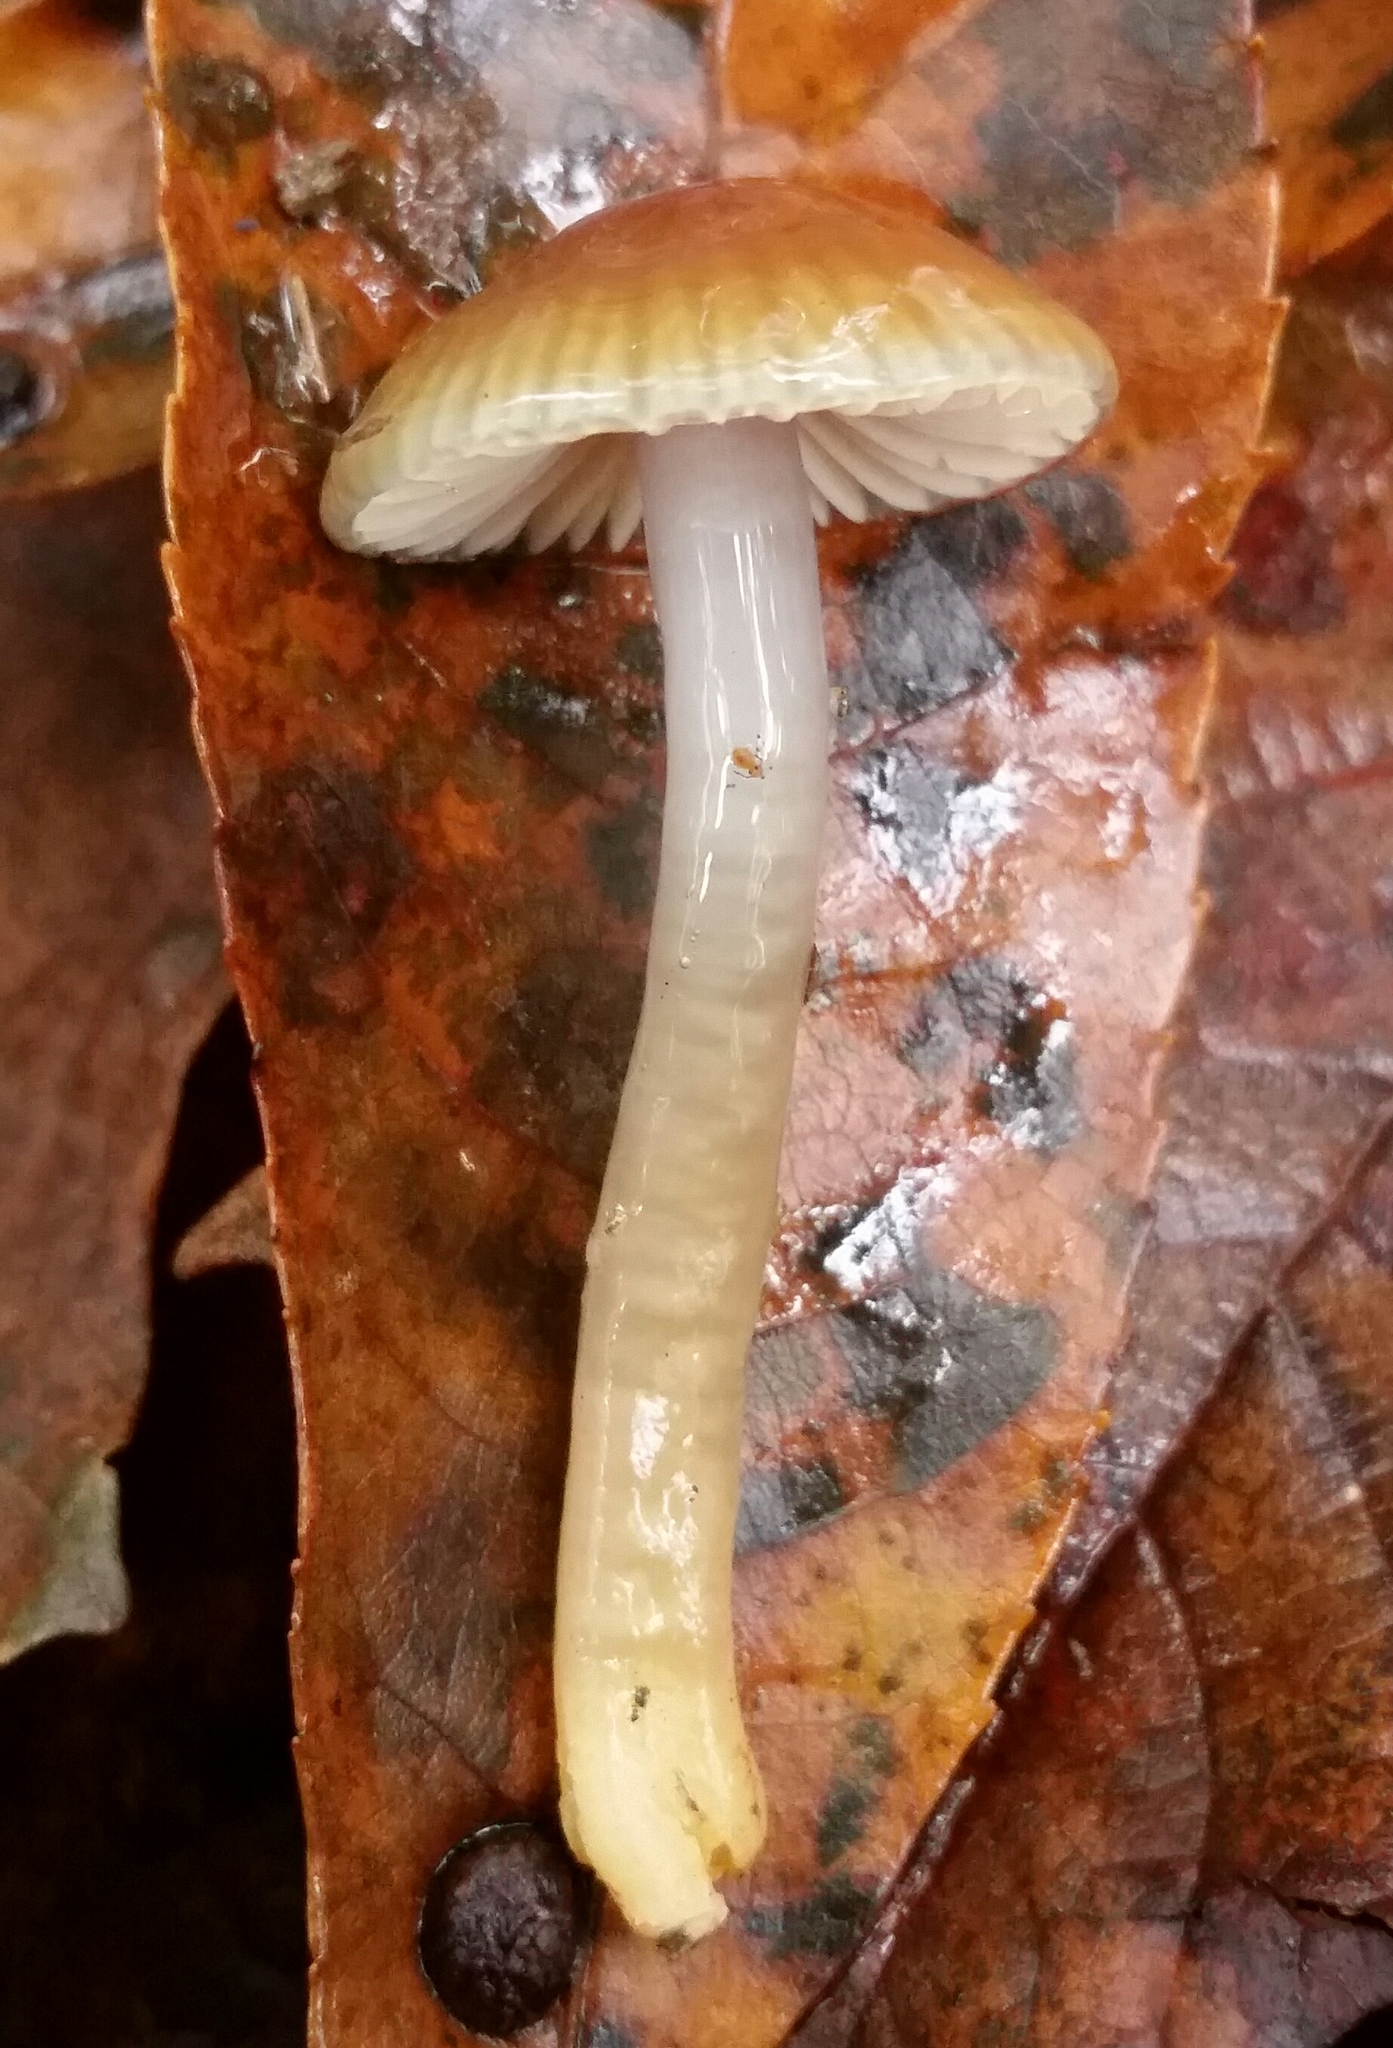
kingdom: Fungi
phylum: Basidiomycota
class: Agaricomycetes
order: Agaricales
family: Hygrophoraceae
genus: Gliophorus
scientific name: Gliophorus psittacinus
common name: Parrot wax-cap
